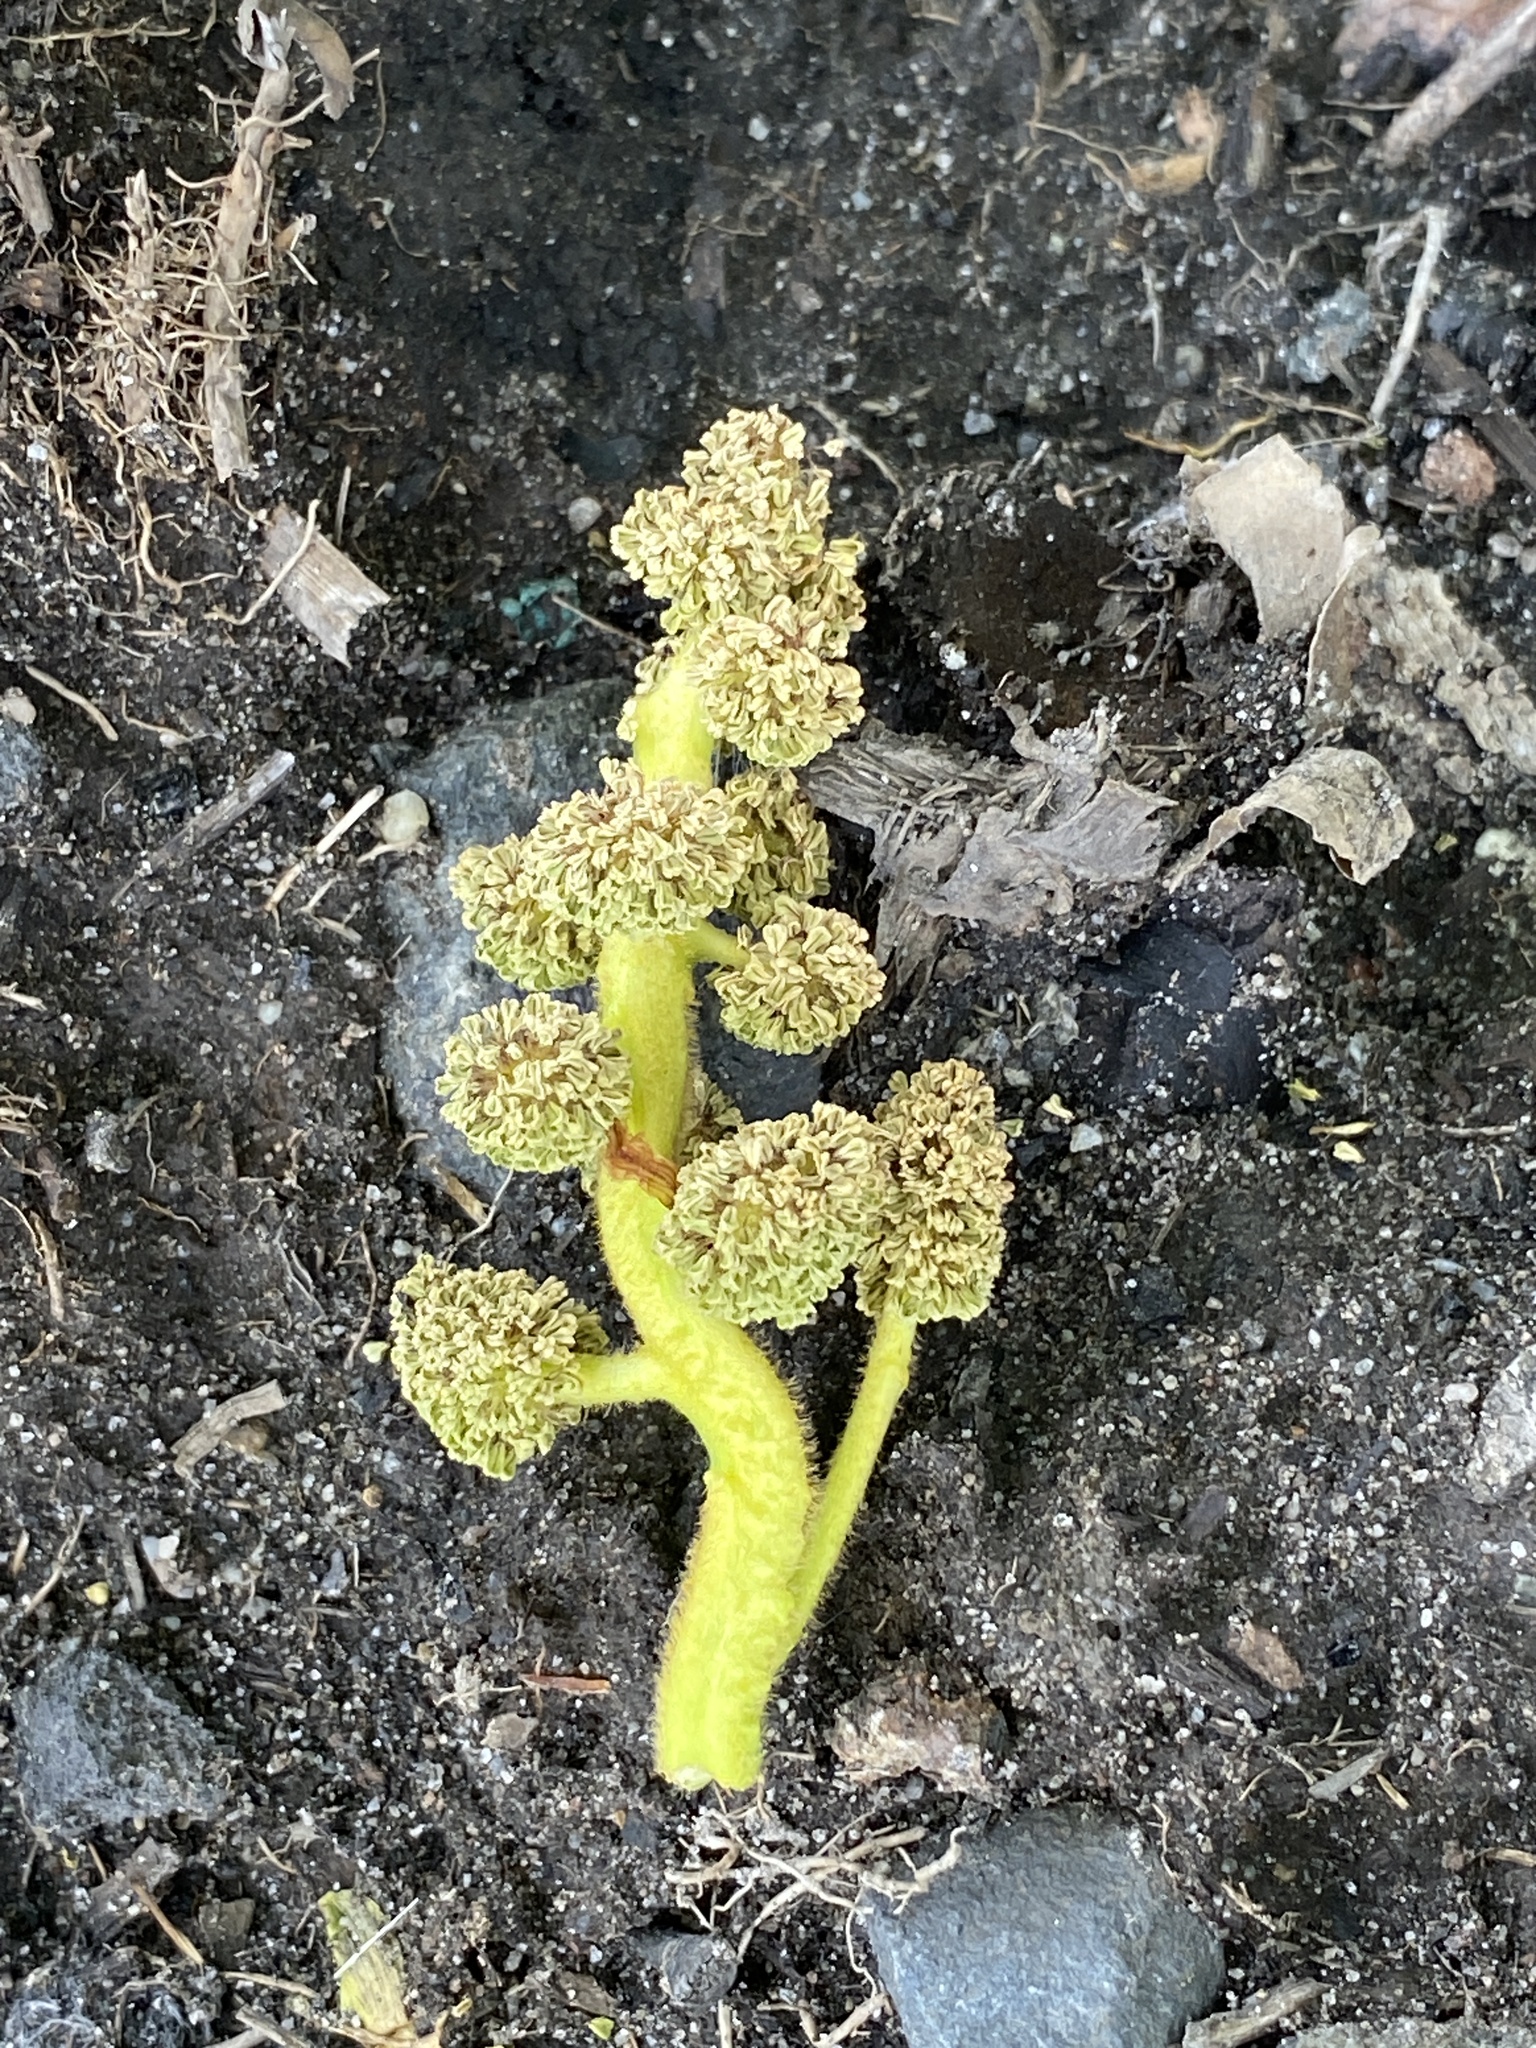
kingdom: Plantae
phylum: Tracheophyta
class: Magnoliopsida
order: Saxifragales
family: Altingiaceae
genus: Liquidambar
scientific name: Liquidambar styraciflua
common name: Sweet gum
